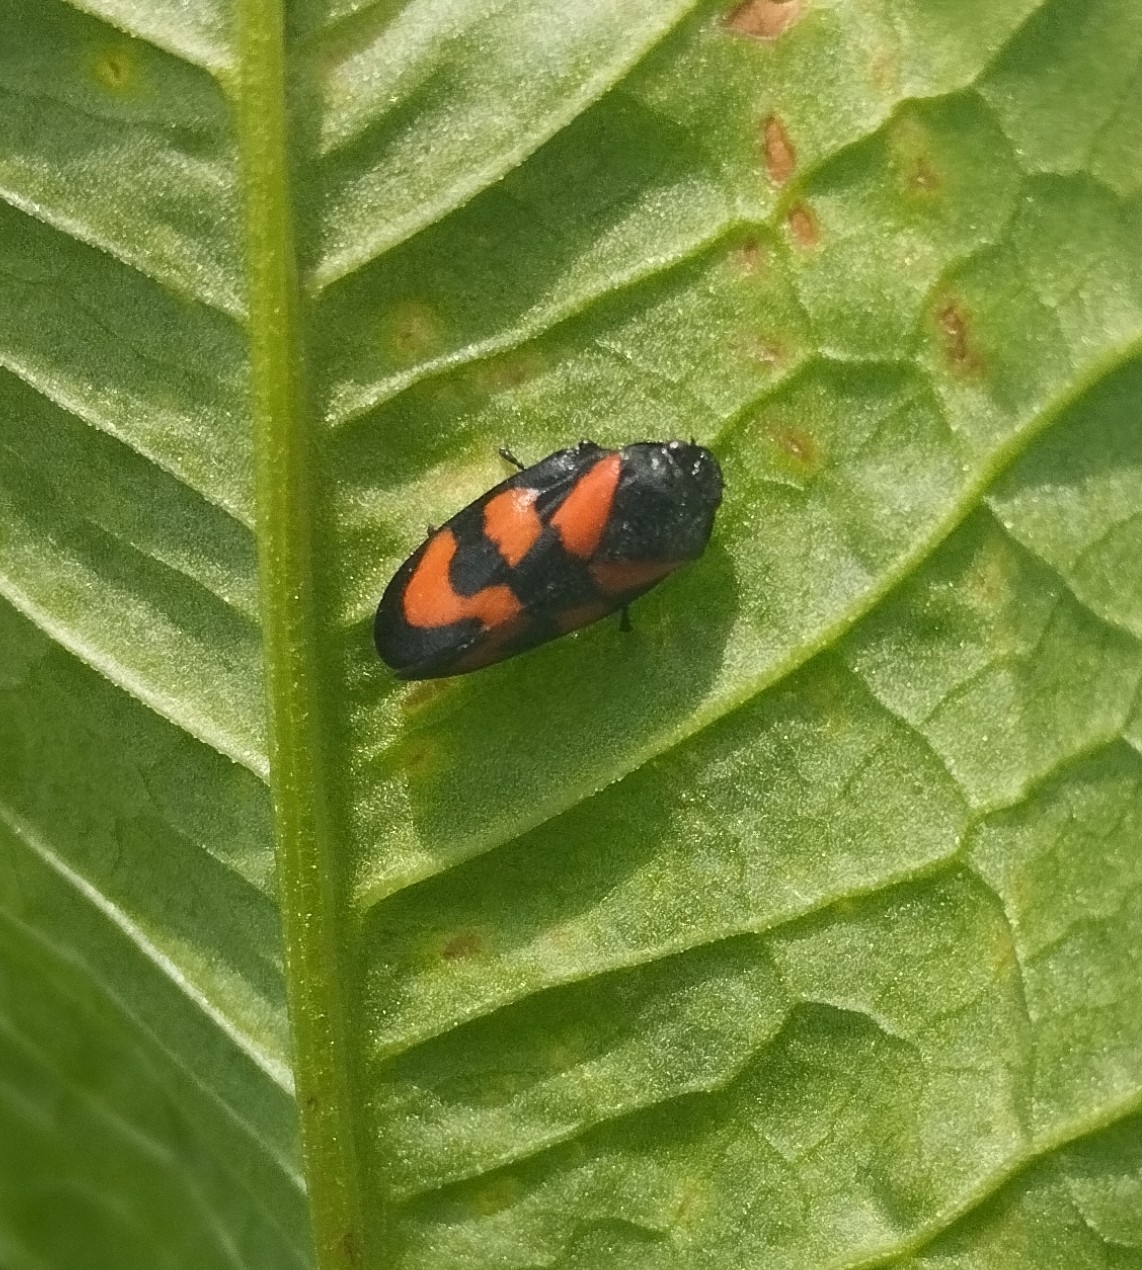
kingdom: Animalia
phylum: Arthropoda
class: Insecta
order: Hemiptera
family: Cercopidae
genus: Cercopis
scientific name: Cercopis vulnerata
